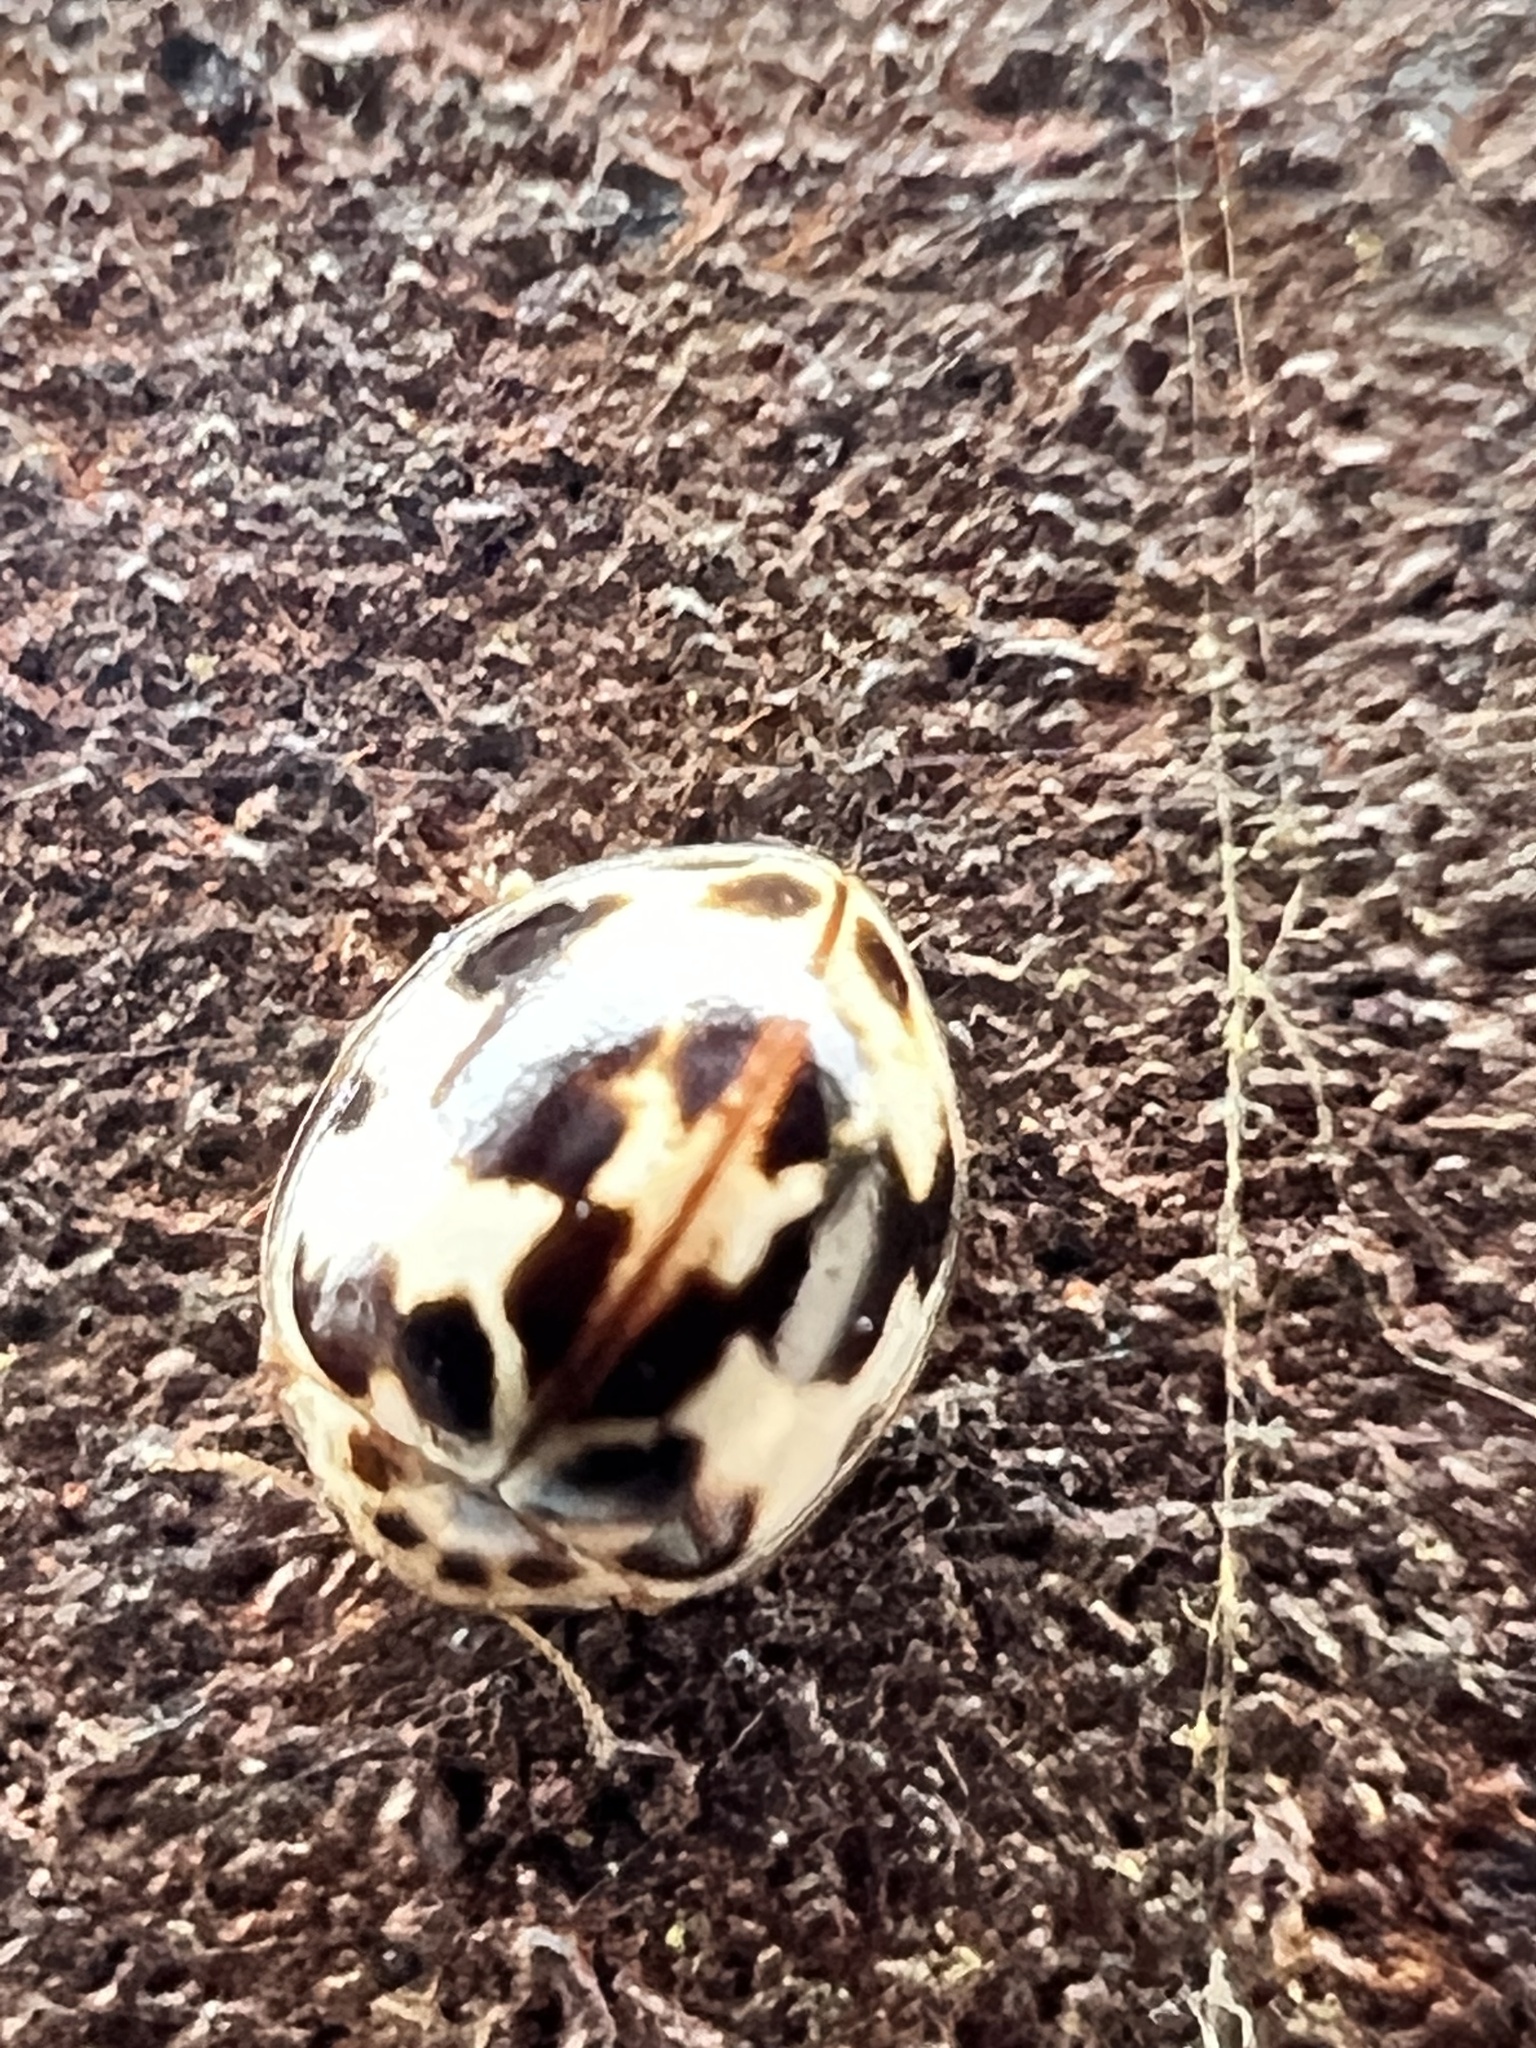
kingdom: Animalia
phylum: Arthropoda
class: Insecta
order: Coleoptera
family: Coccinellidae
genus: Psyllobora
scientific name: Psyllobora borealis
